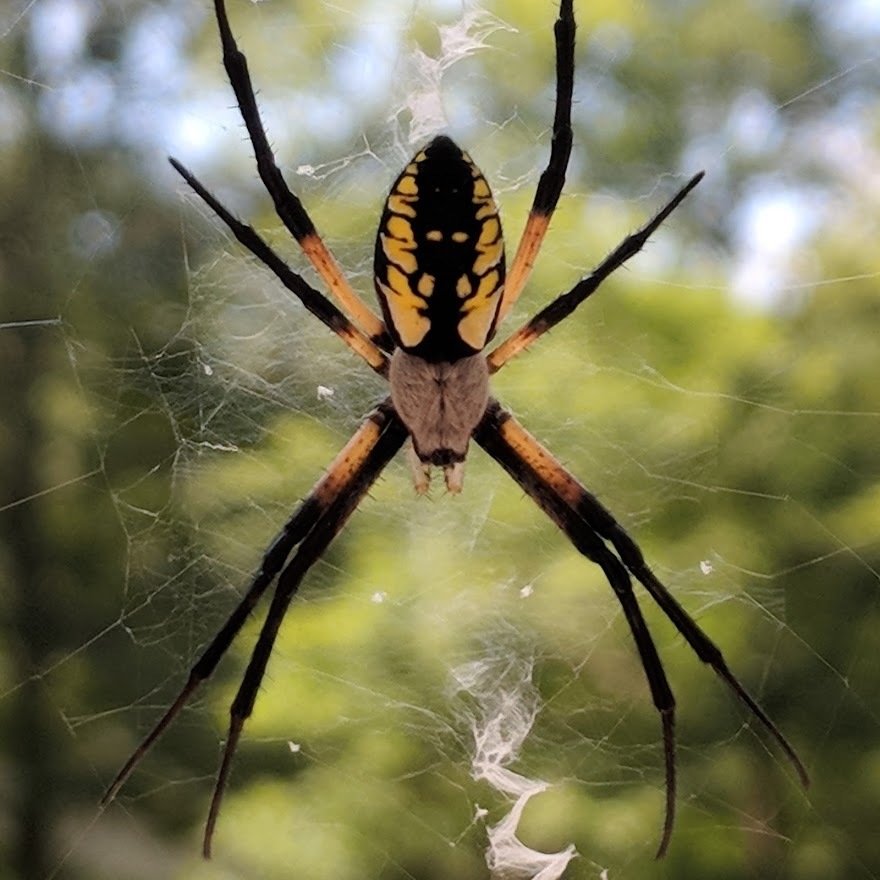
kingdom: Animalia
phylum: Arthropoda
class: Arachnida
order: Araneae
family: Araneidae
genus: Argiope
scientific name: Argiope aurantia
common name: Orb weavers
